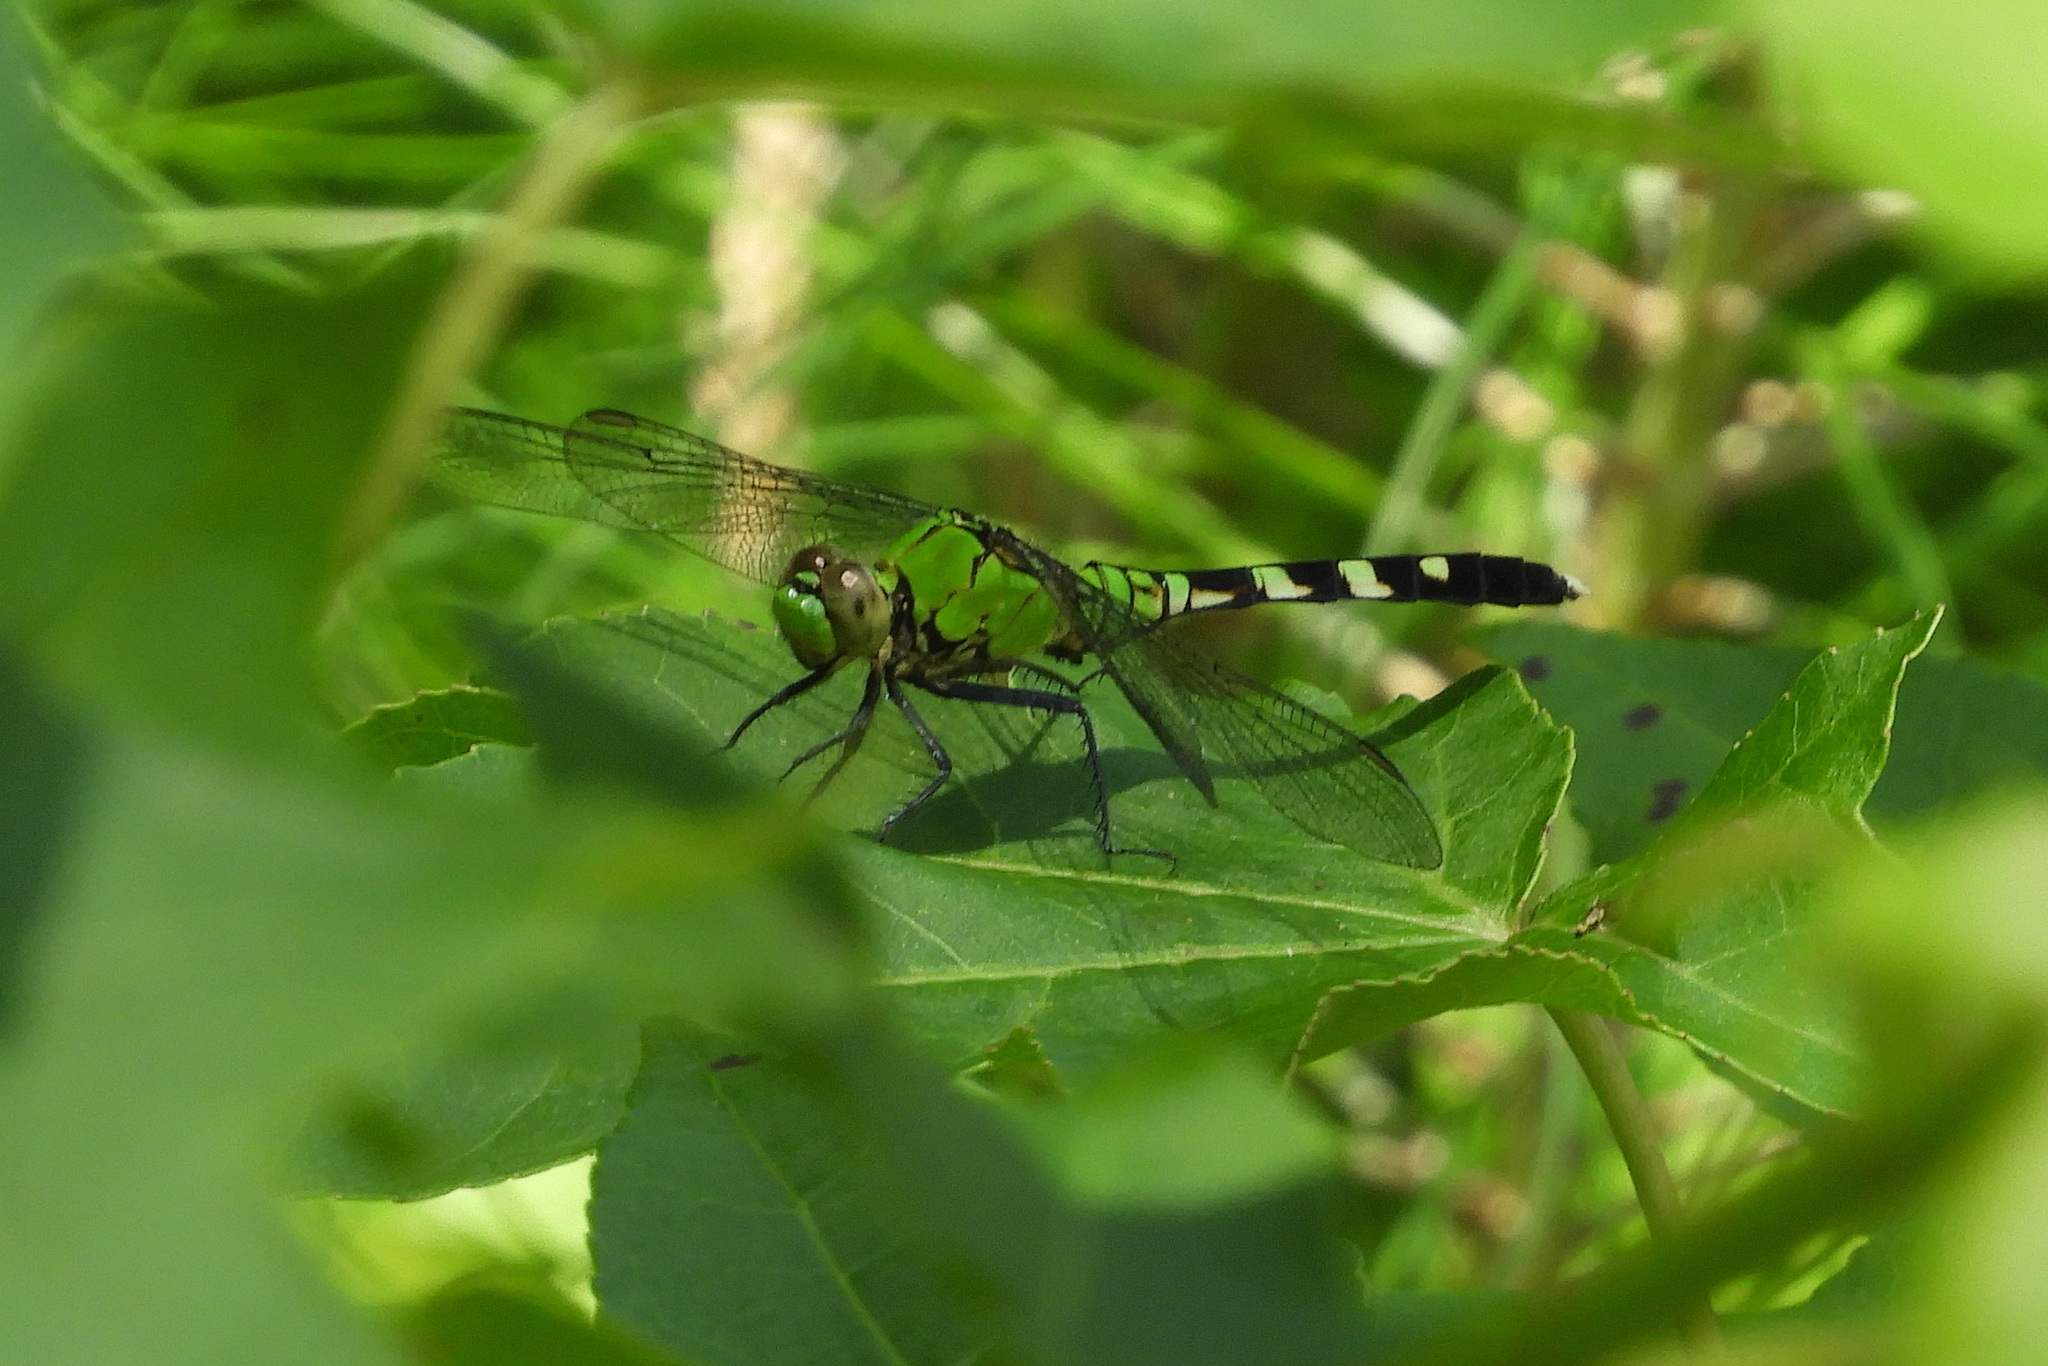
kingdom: Animalia
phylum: Arthropoda
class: Insecta
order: Odonata
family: Libellulidae
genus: Erythemis
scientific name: Erythemis simplicicollis
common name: Eastern pondhawk
